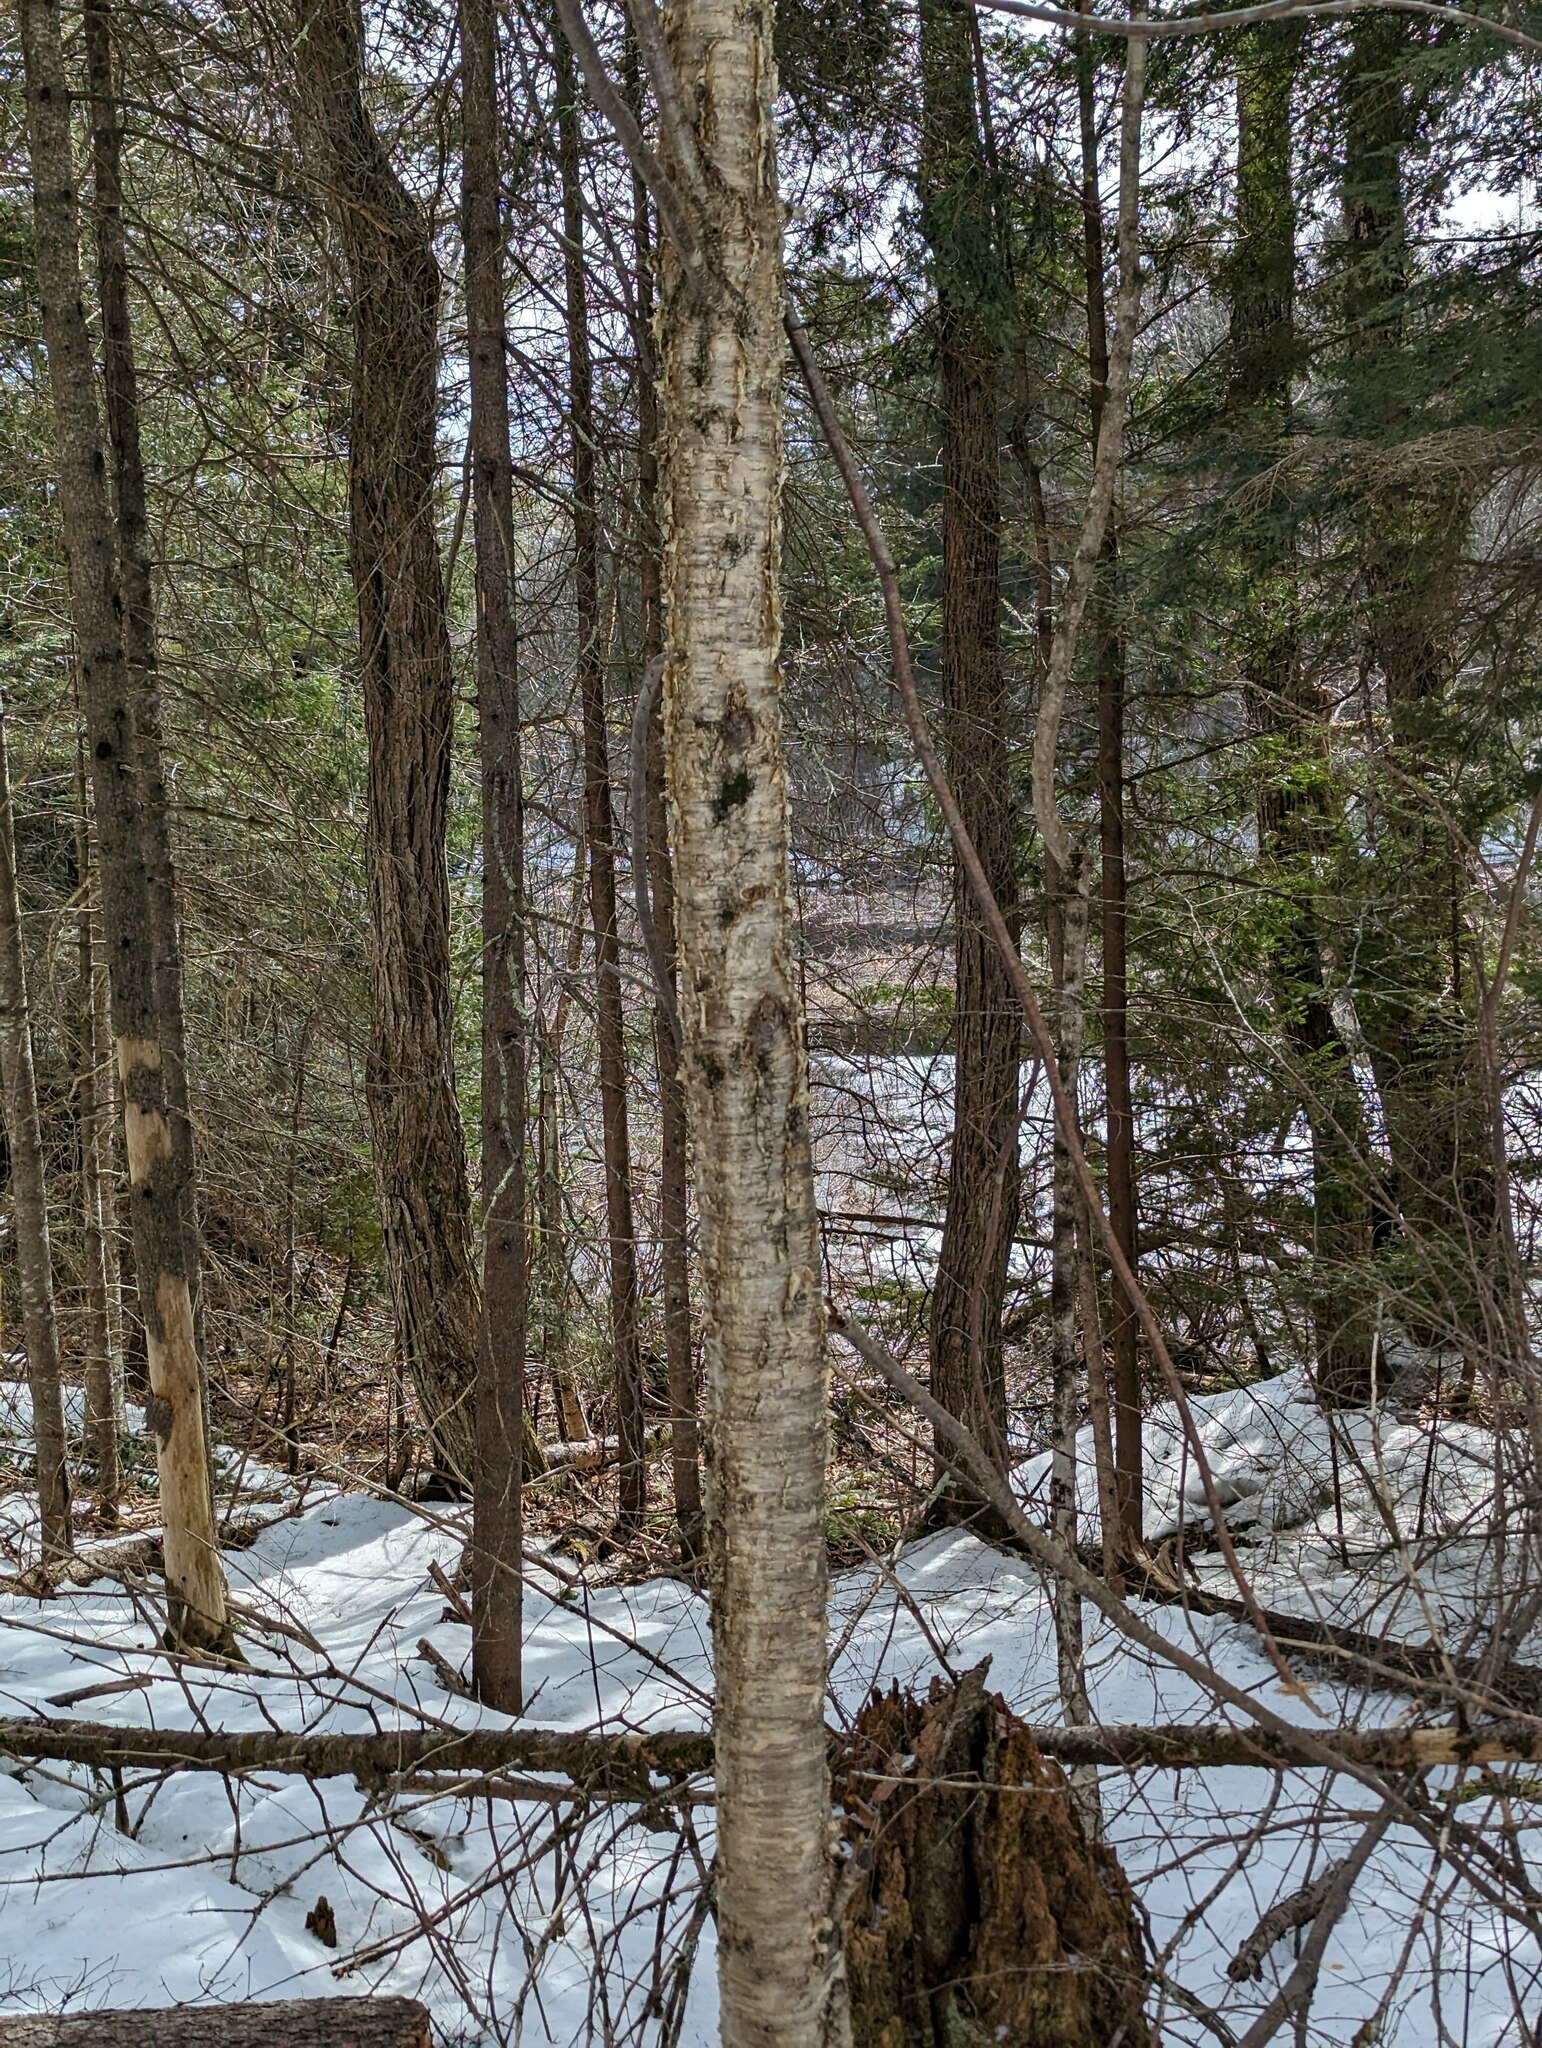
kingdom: Plantae
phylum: Tracheophyta
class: Magnoliopsida
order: Fagales
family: Betulaceae
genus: Betula
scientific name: Betula alleghaniensis
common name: Yellow birch
